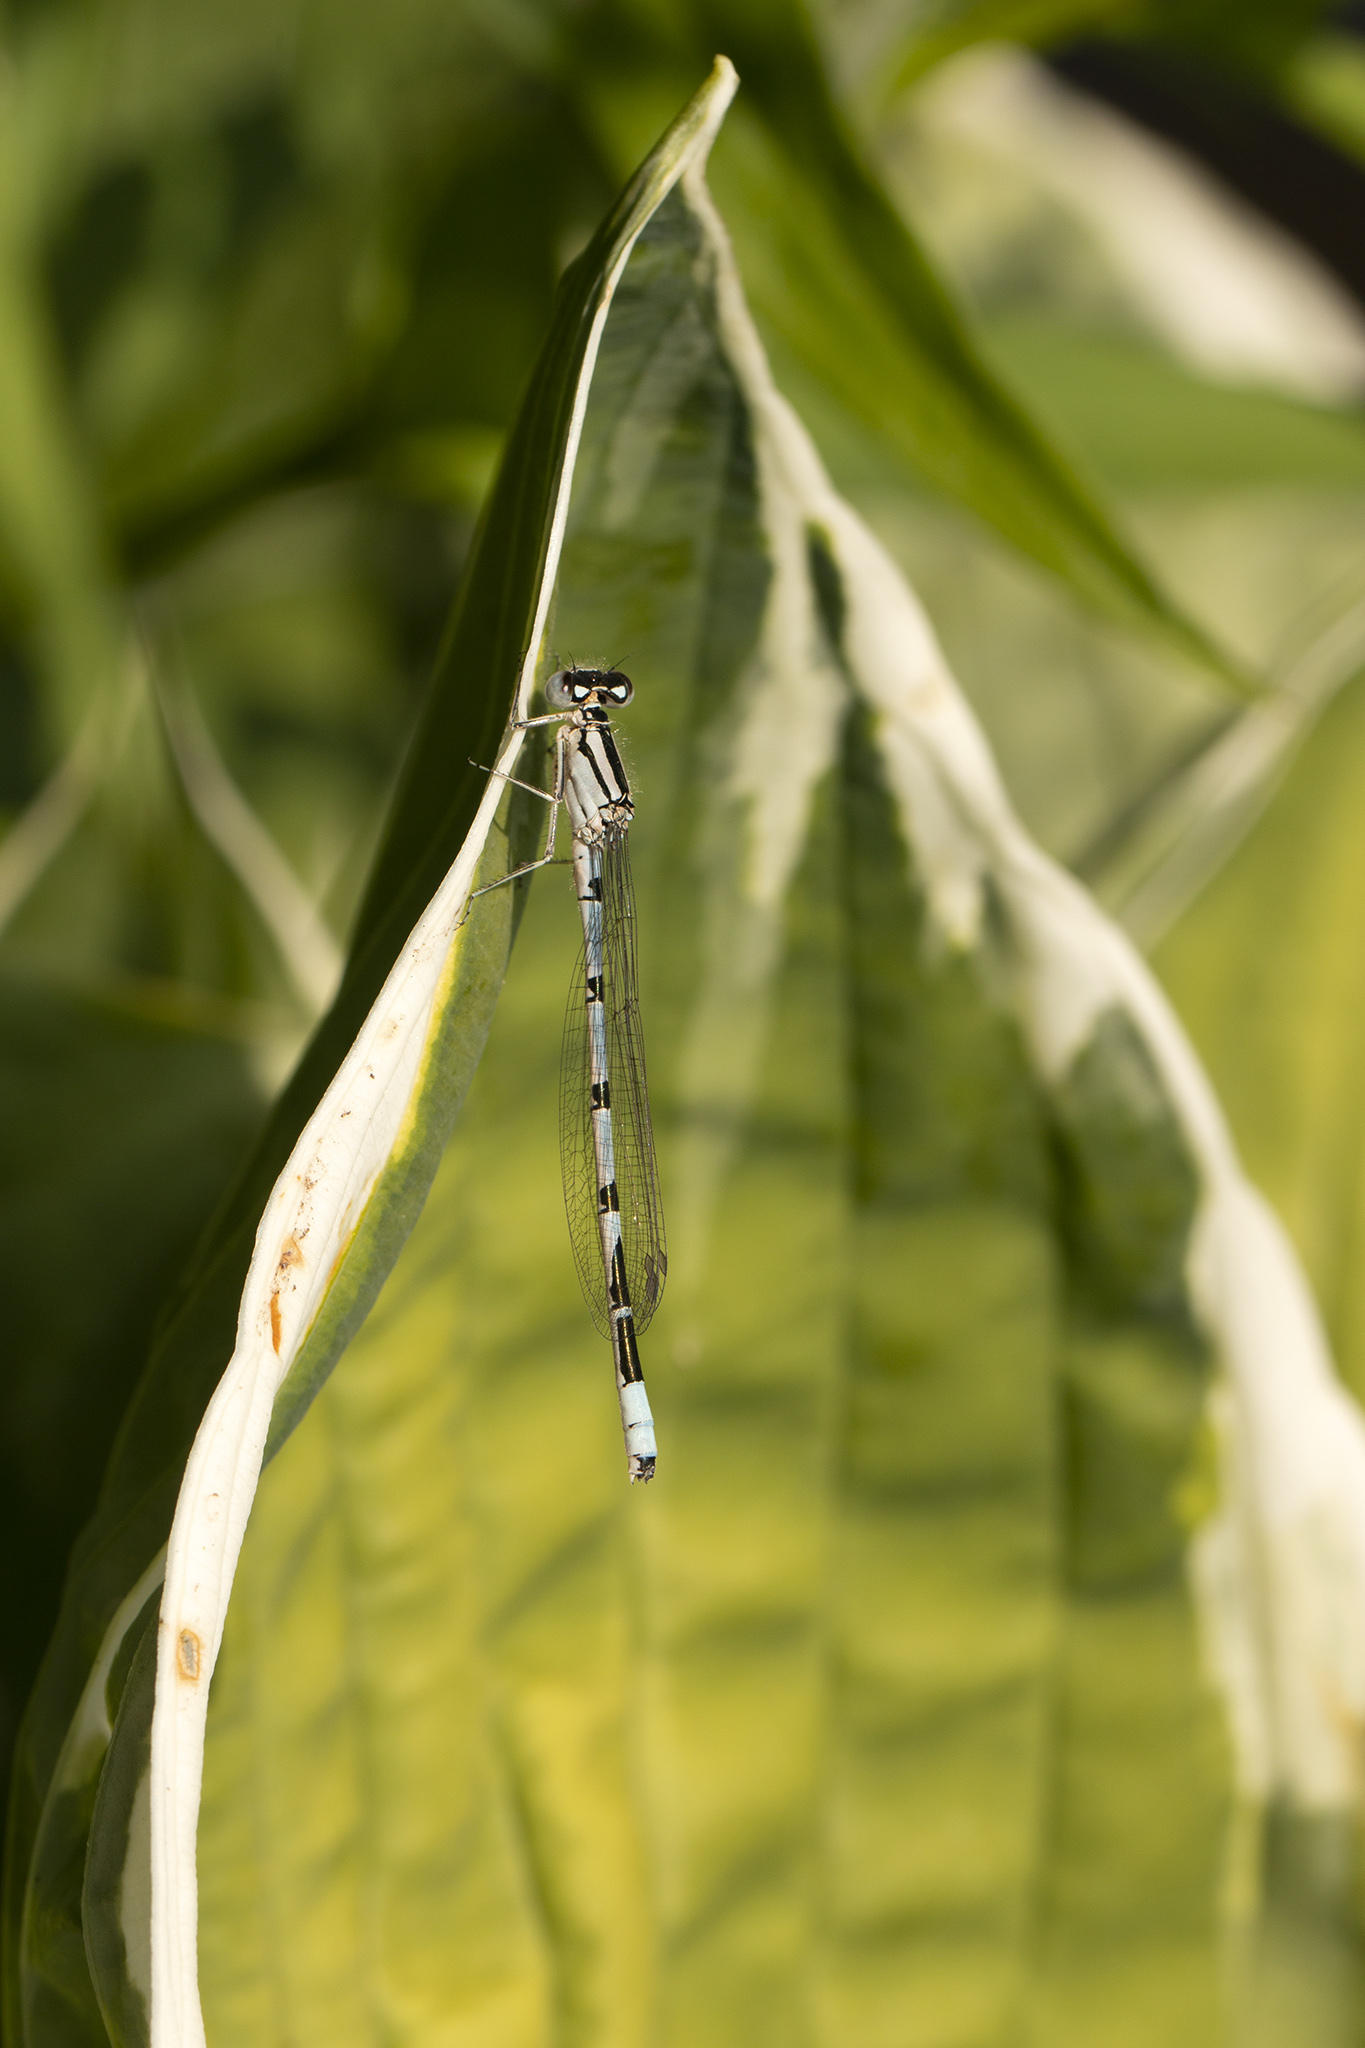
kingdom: Animalia
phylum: Arthropoda
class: Insecta
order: Odonata
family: Coenagrionidae
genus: Enallagma
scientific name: Enallagma cyathigerum
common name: Common blue damselfly
